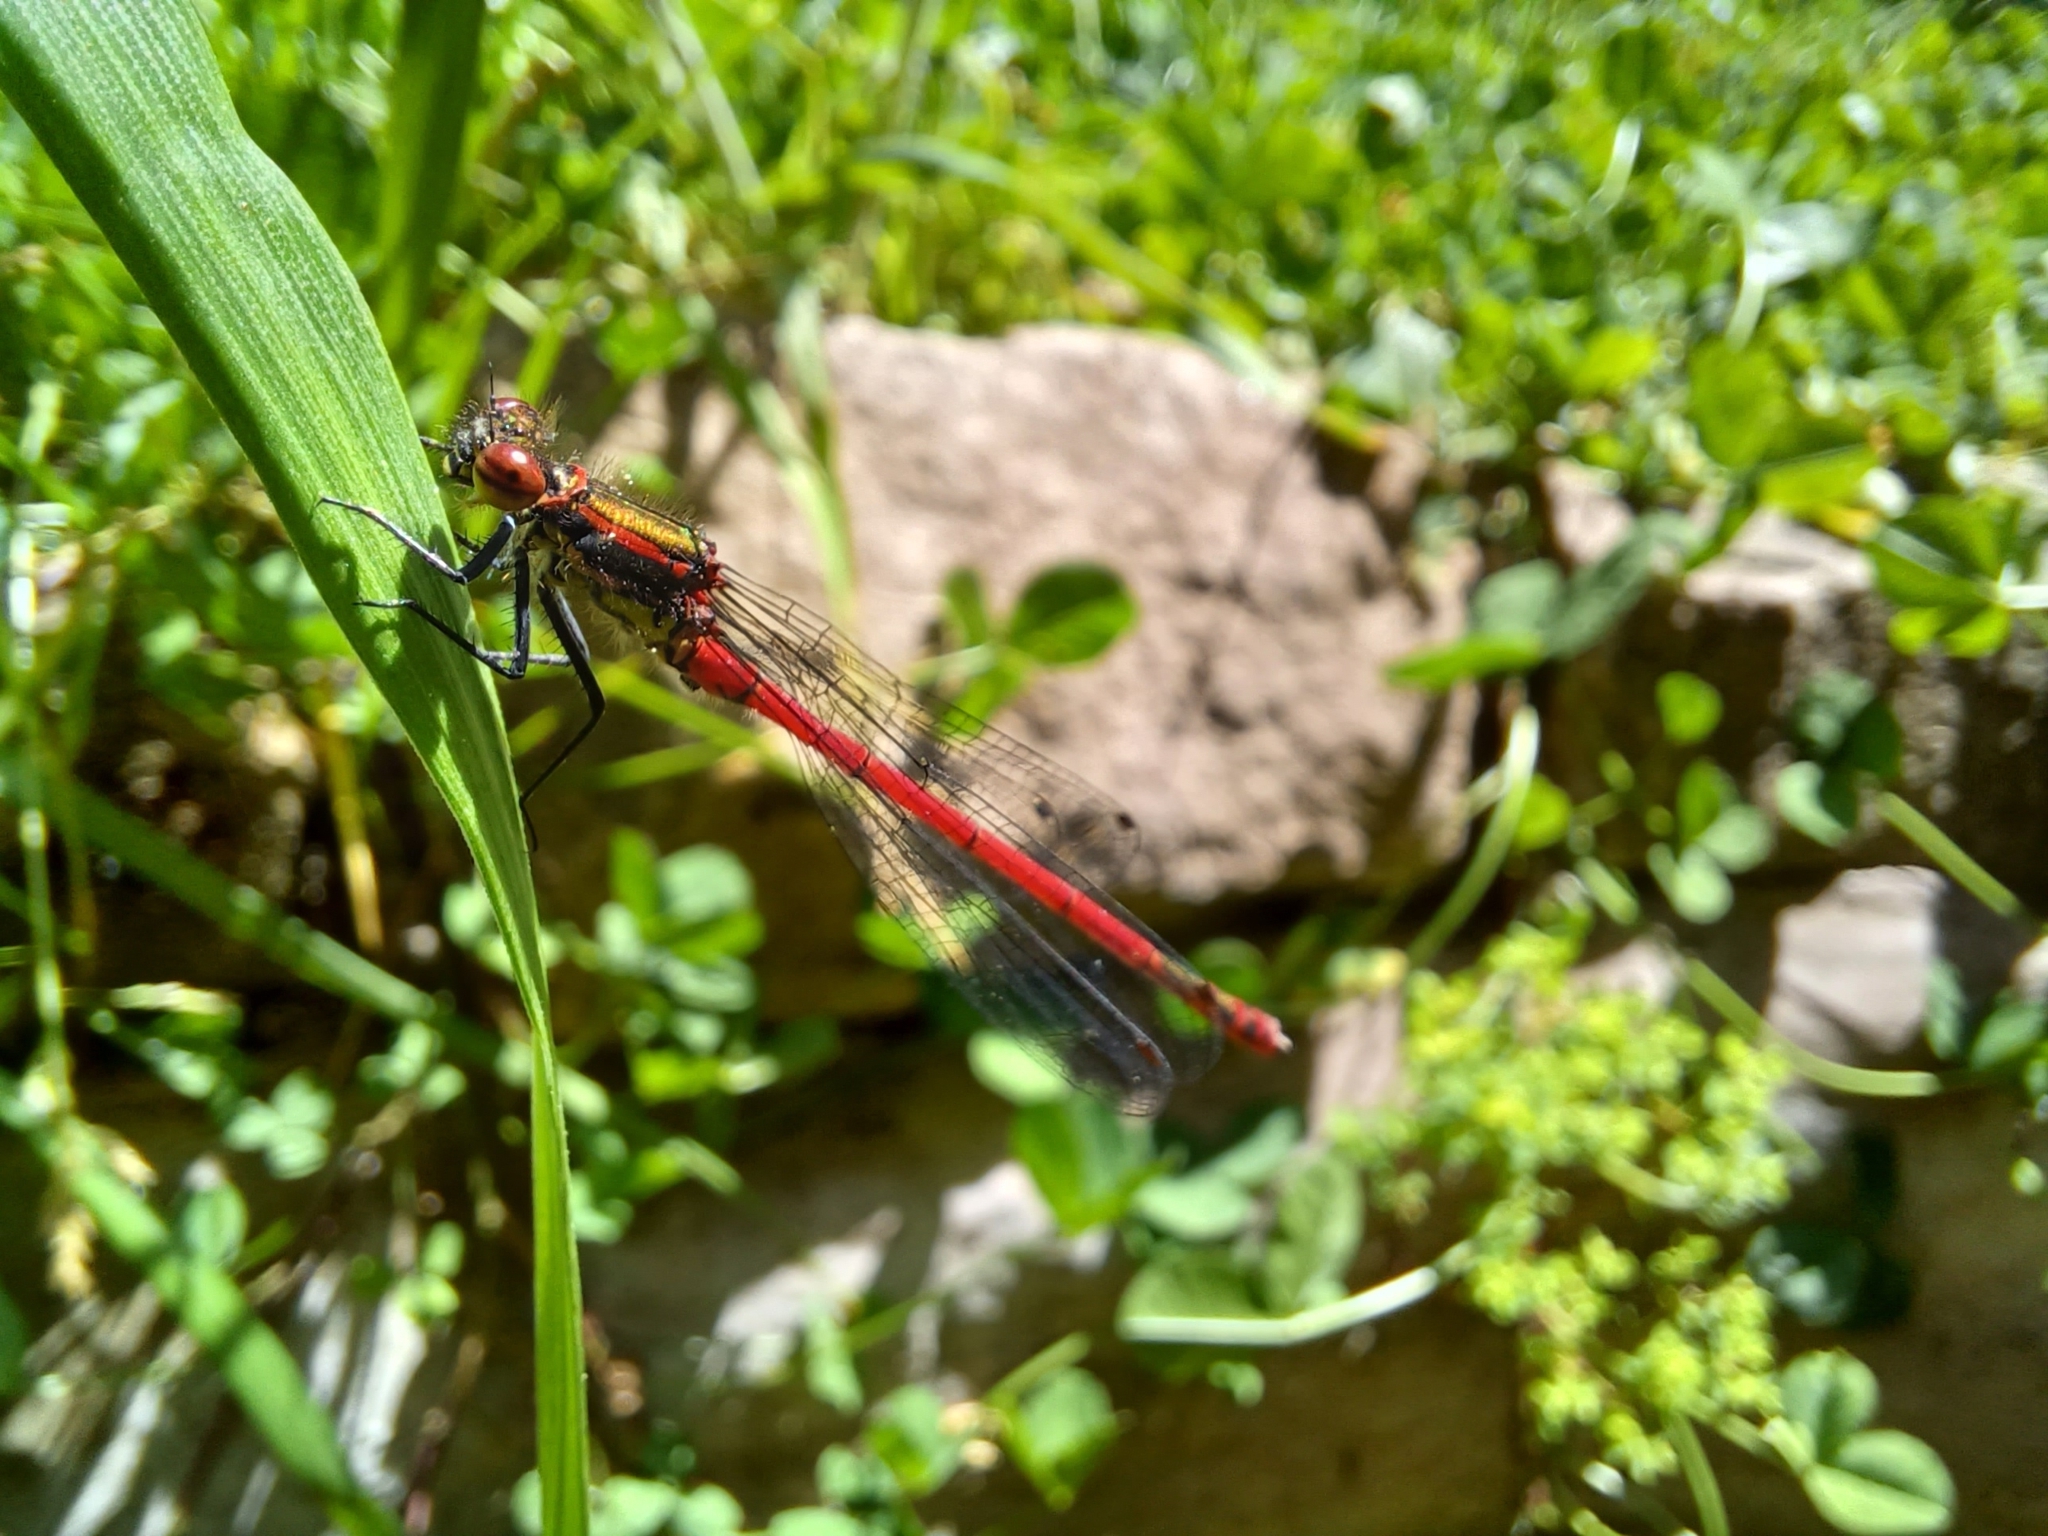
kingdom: Animalia
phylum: Arthropoda
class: Insecta
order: Odonata
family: Coenagrionidae
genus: Pyrrhosoma
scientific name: Pyrrhosoma nymphula
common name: Large red damsel
